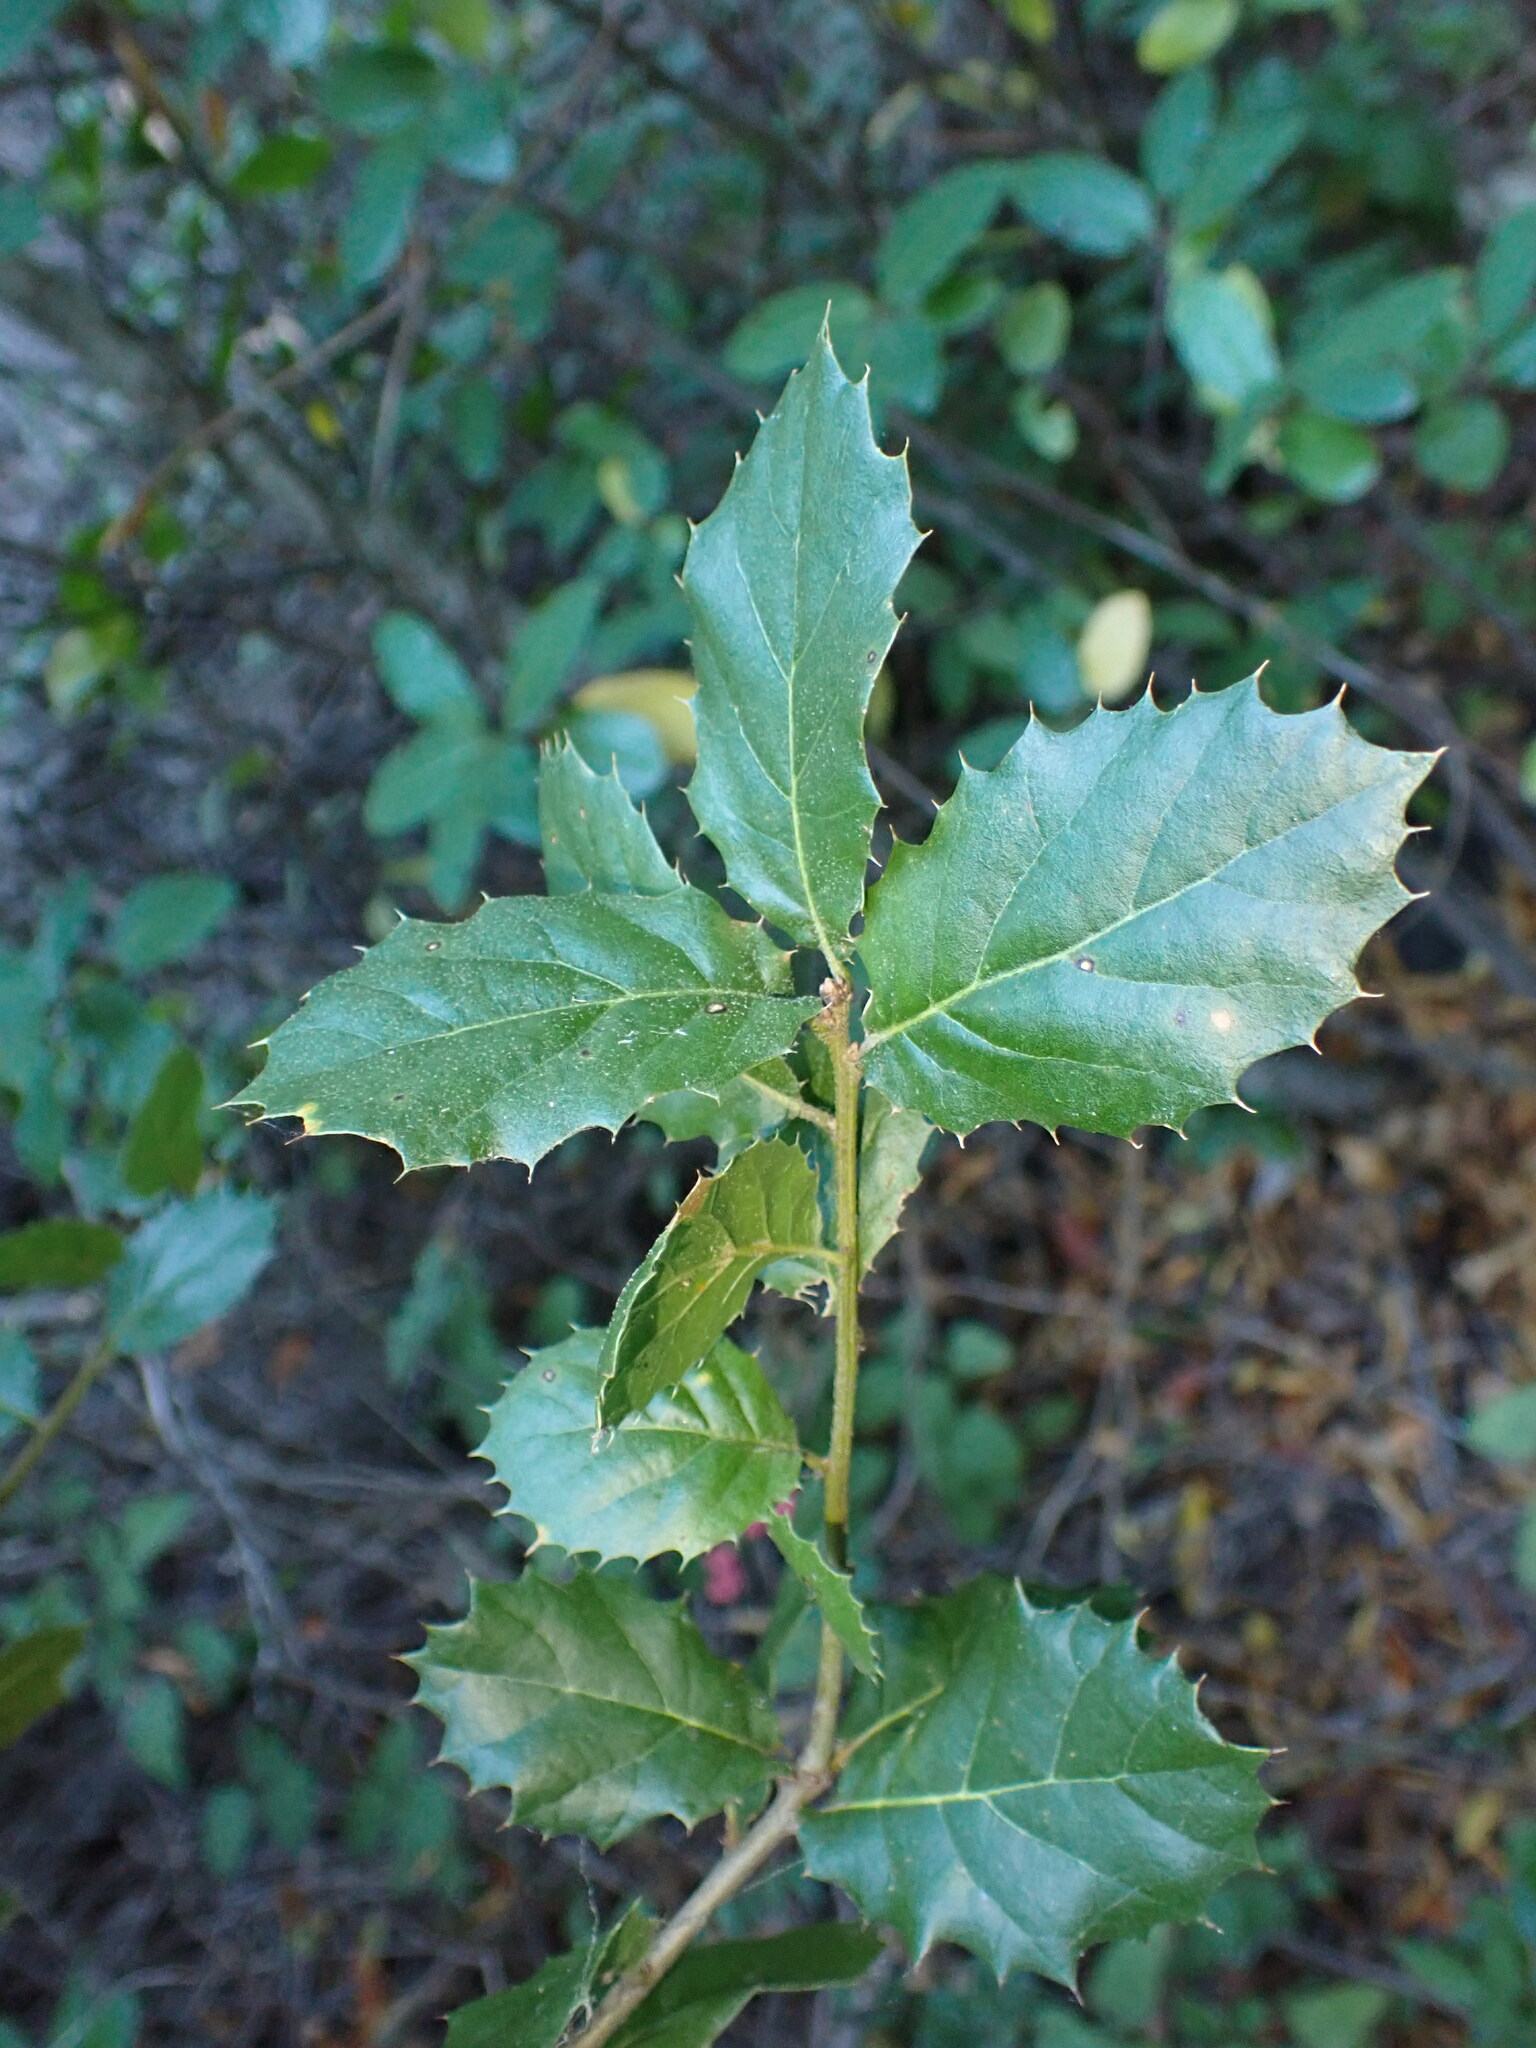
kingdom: Plantae
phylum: Tracheophyta
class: Magnoliopsida
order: Fagales
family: Fagaceae
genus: Quercus
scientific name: Quercus agrifolia
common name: California live oak
